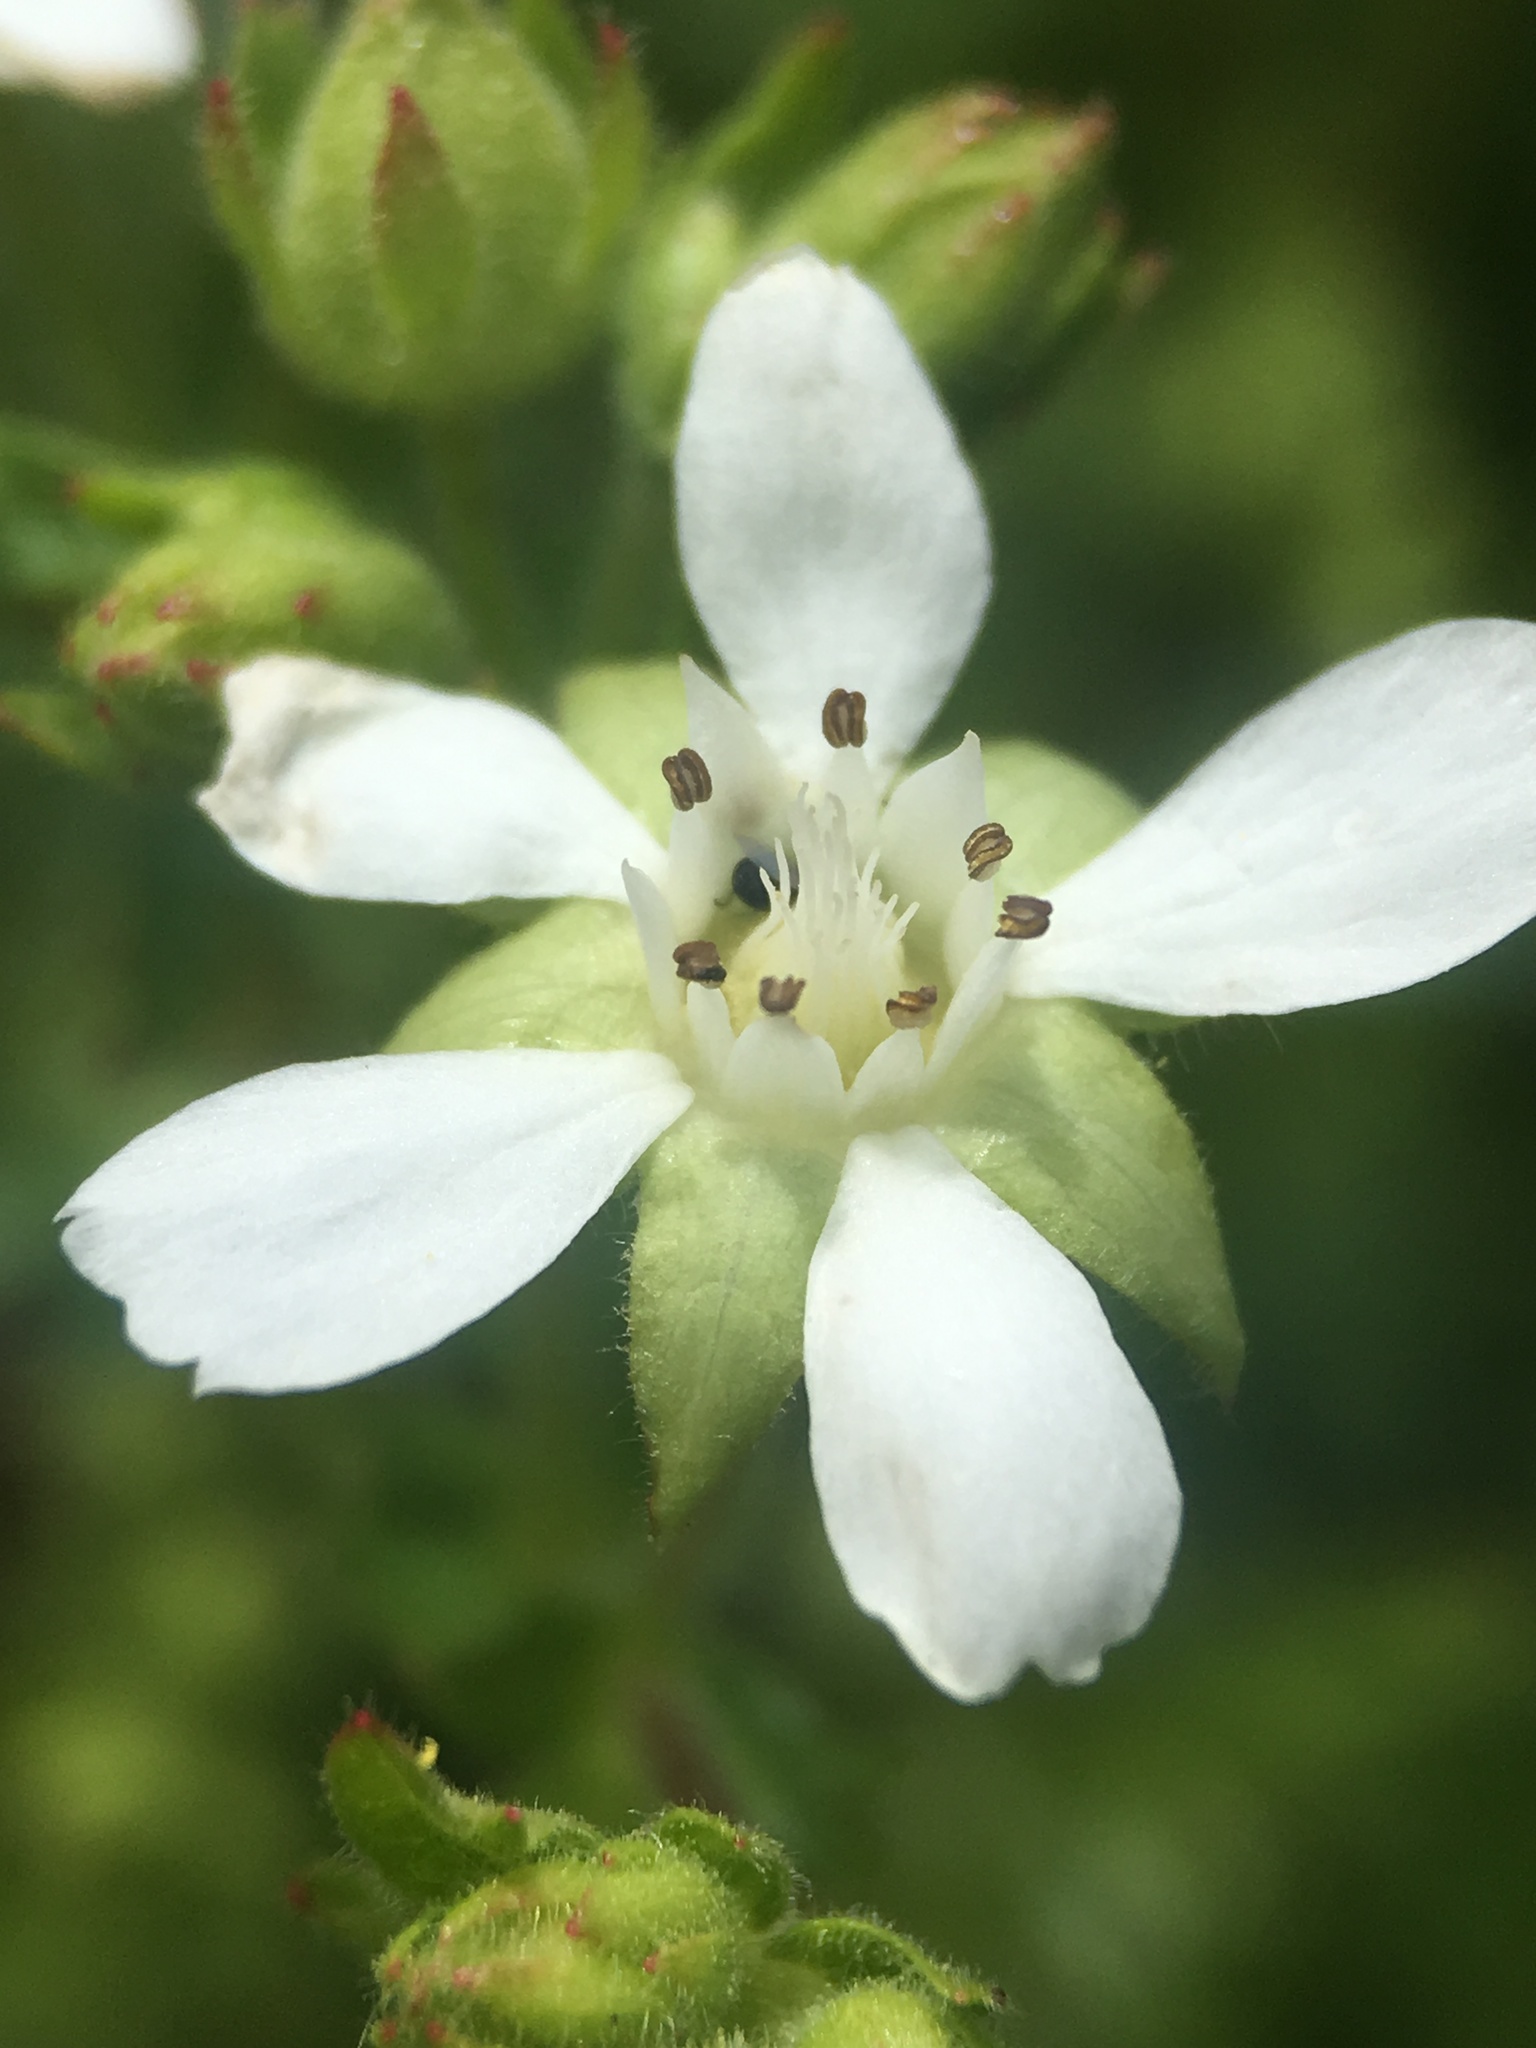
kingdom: Plantae
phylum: Tracheophyta
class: Magnoliopsida
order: Rosales
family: Rosaceae
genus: Potentilla
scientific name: Potentilla
